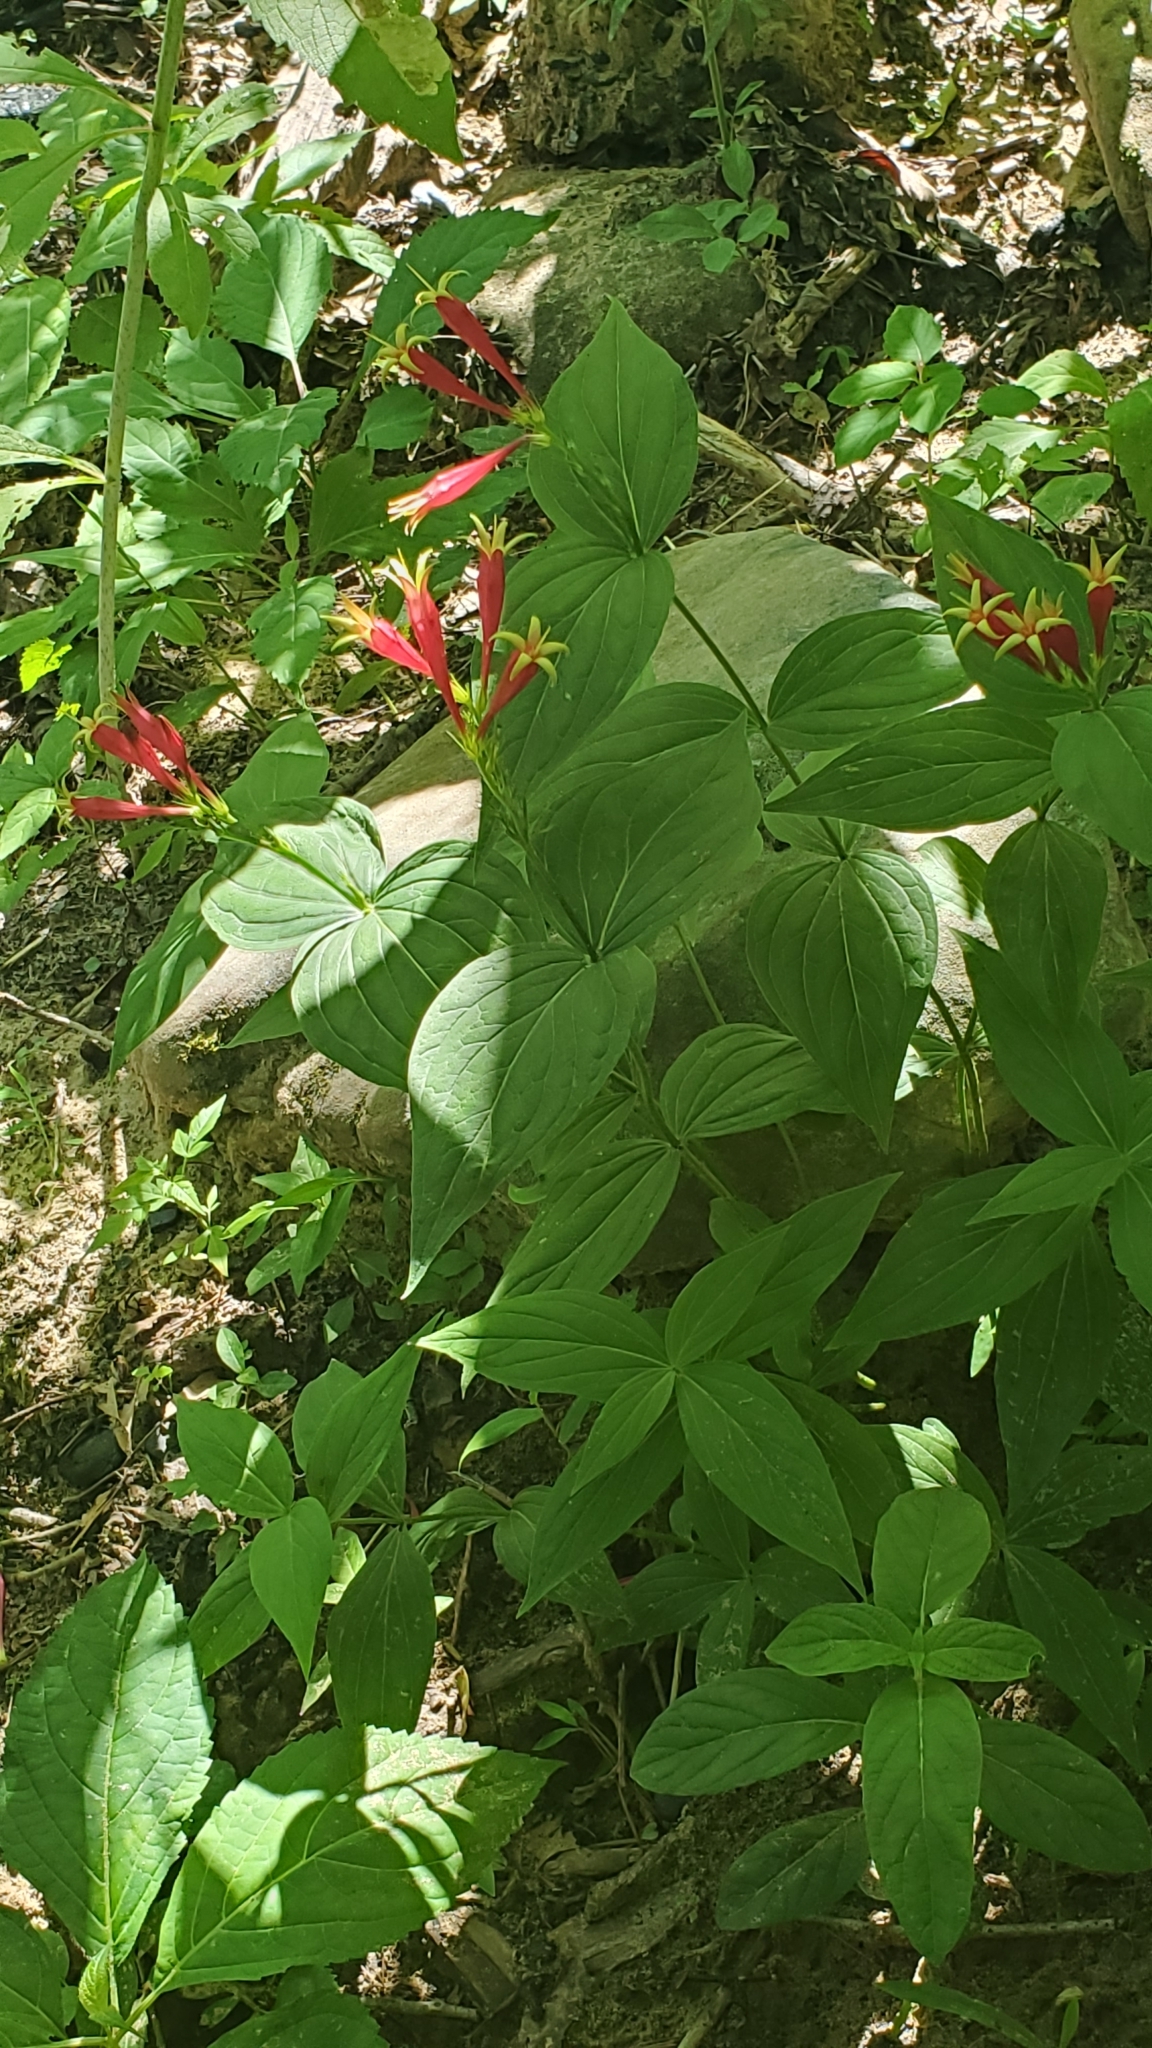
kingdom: Plantae
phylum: Tracheophyta
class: Magnoliopsida
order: Gentianales
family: Loganiaceae
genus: Spigelia
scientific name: Spigelia marilandica
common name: Indian-pink
